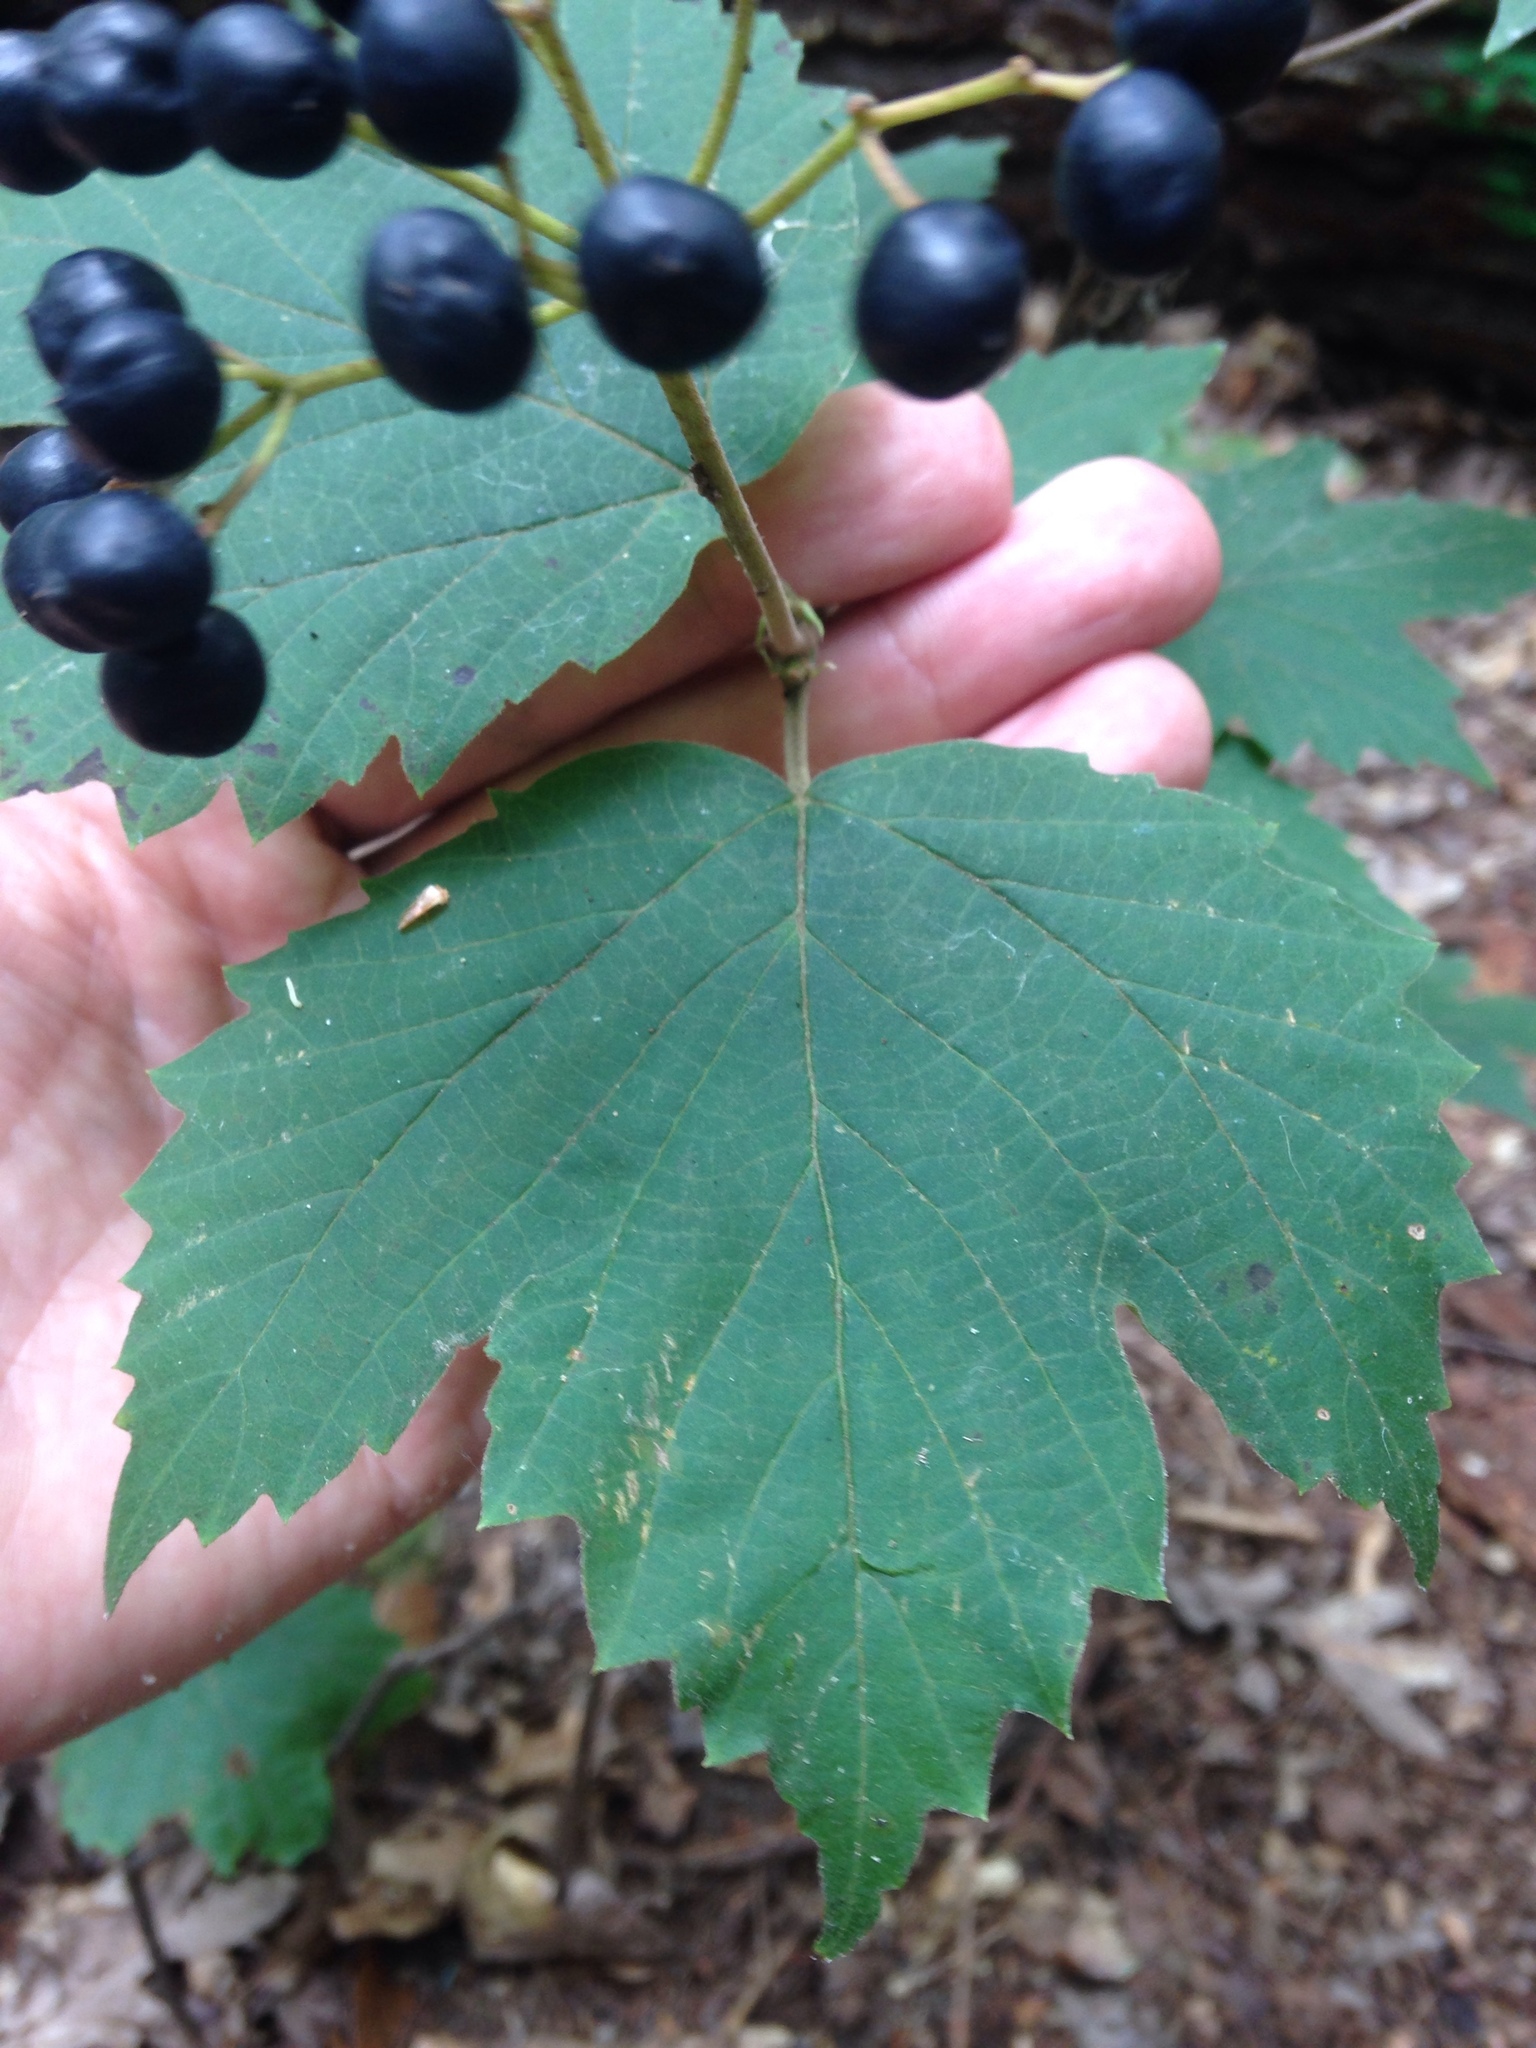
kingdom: Plantae
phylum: Tracheophyta
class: Magnoliopsida
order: Dipsacales
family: Viburnaceae
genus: Viburnum
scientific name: Viburnum acerifolium
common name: Dockmackie
